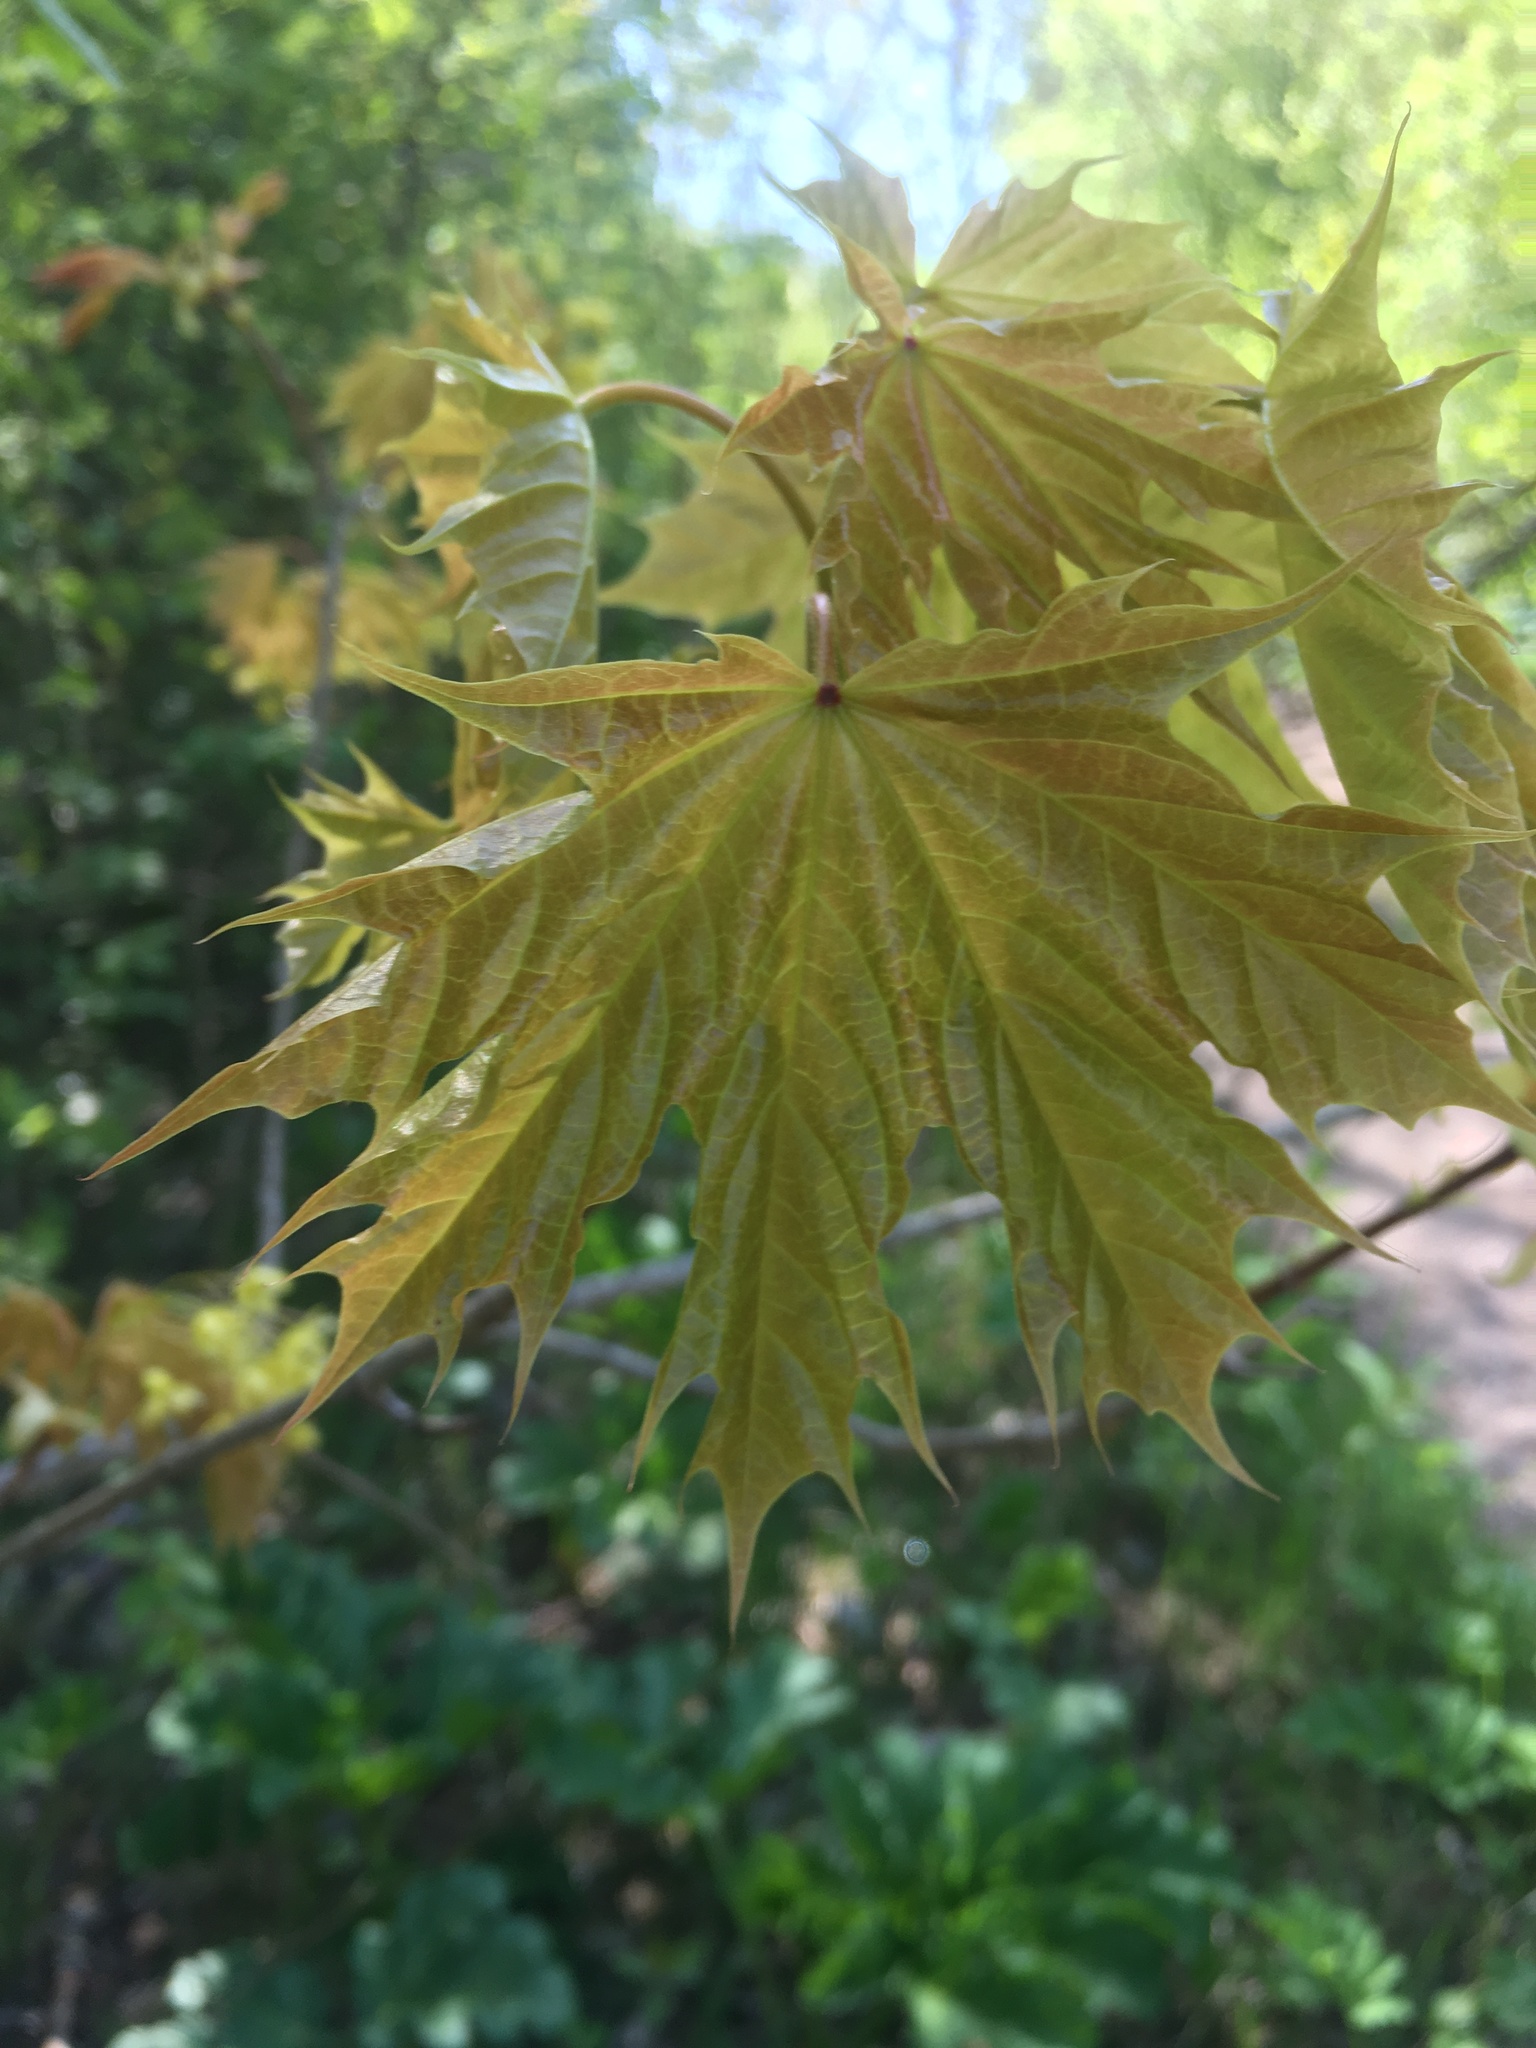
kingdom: Plantae
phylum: Tracheophyta
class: Magnoliopsida
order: Sapindales
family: Sapindaceae
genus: Acer
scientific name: Acer platanoides
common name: Norway maple
